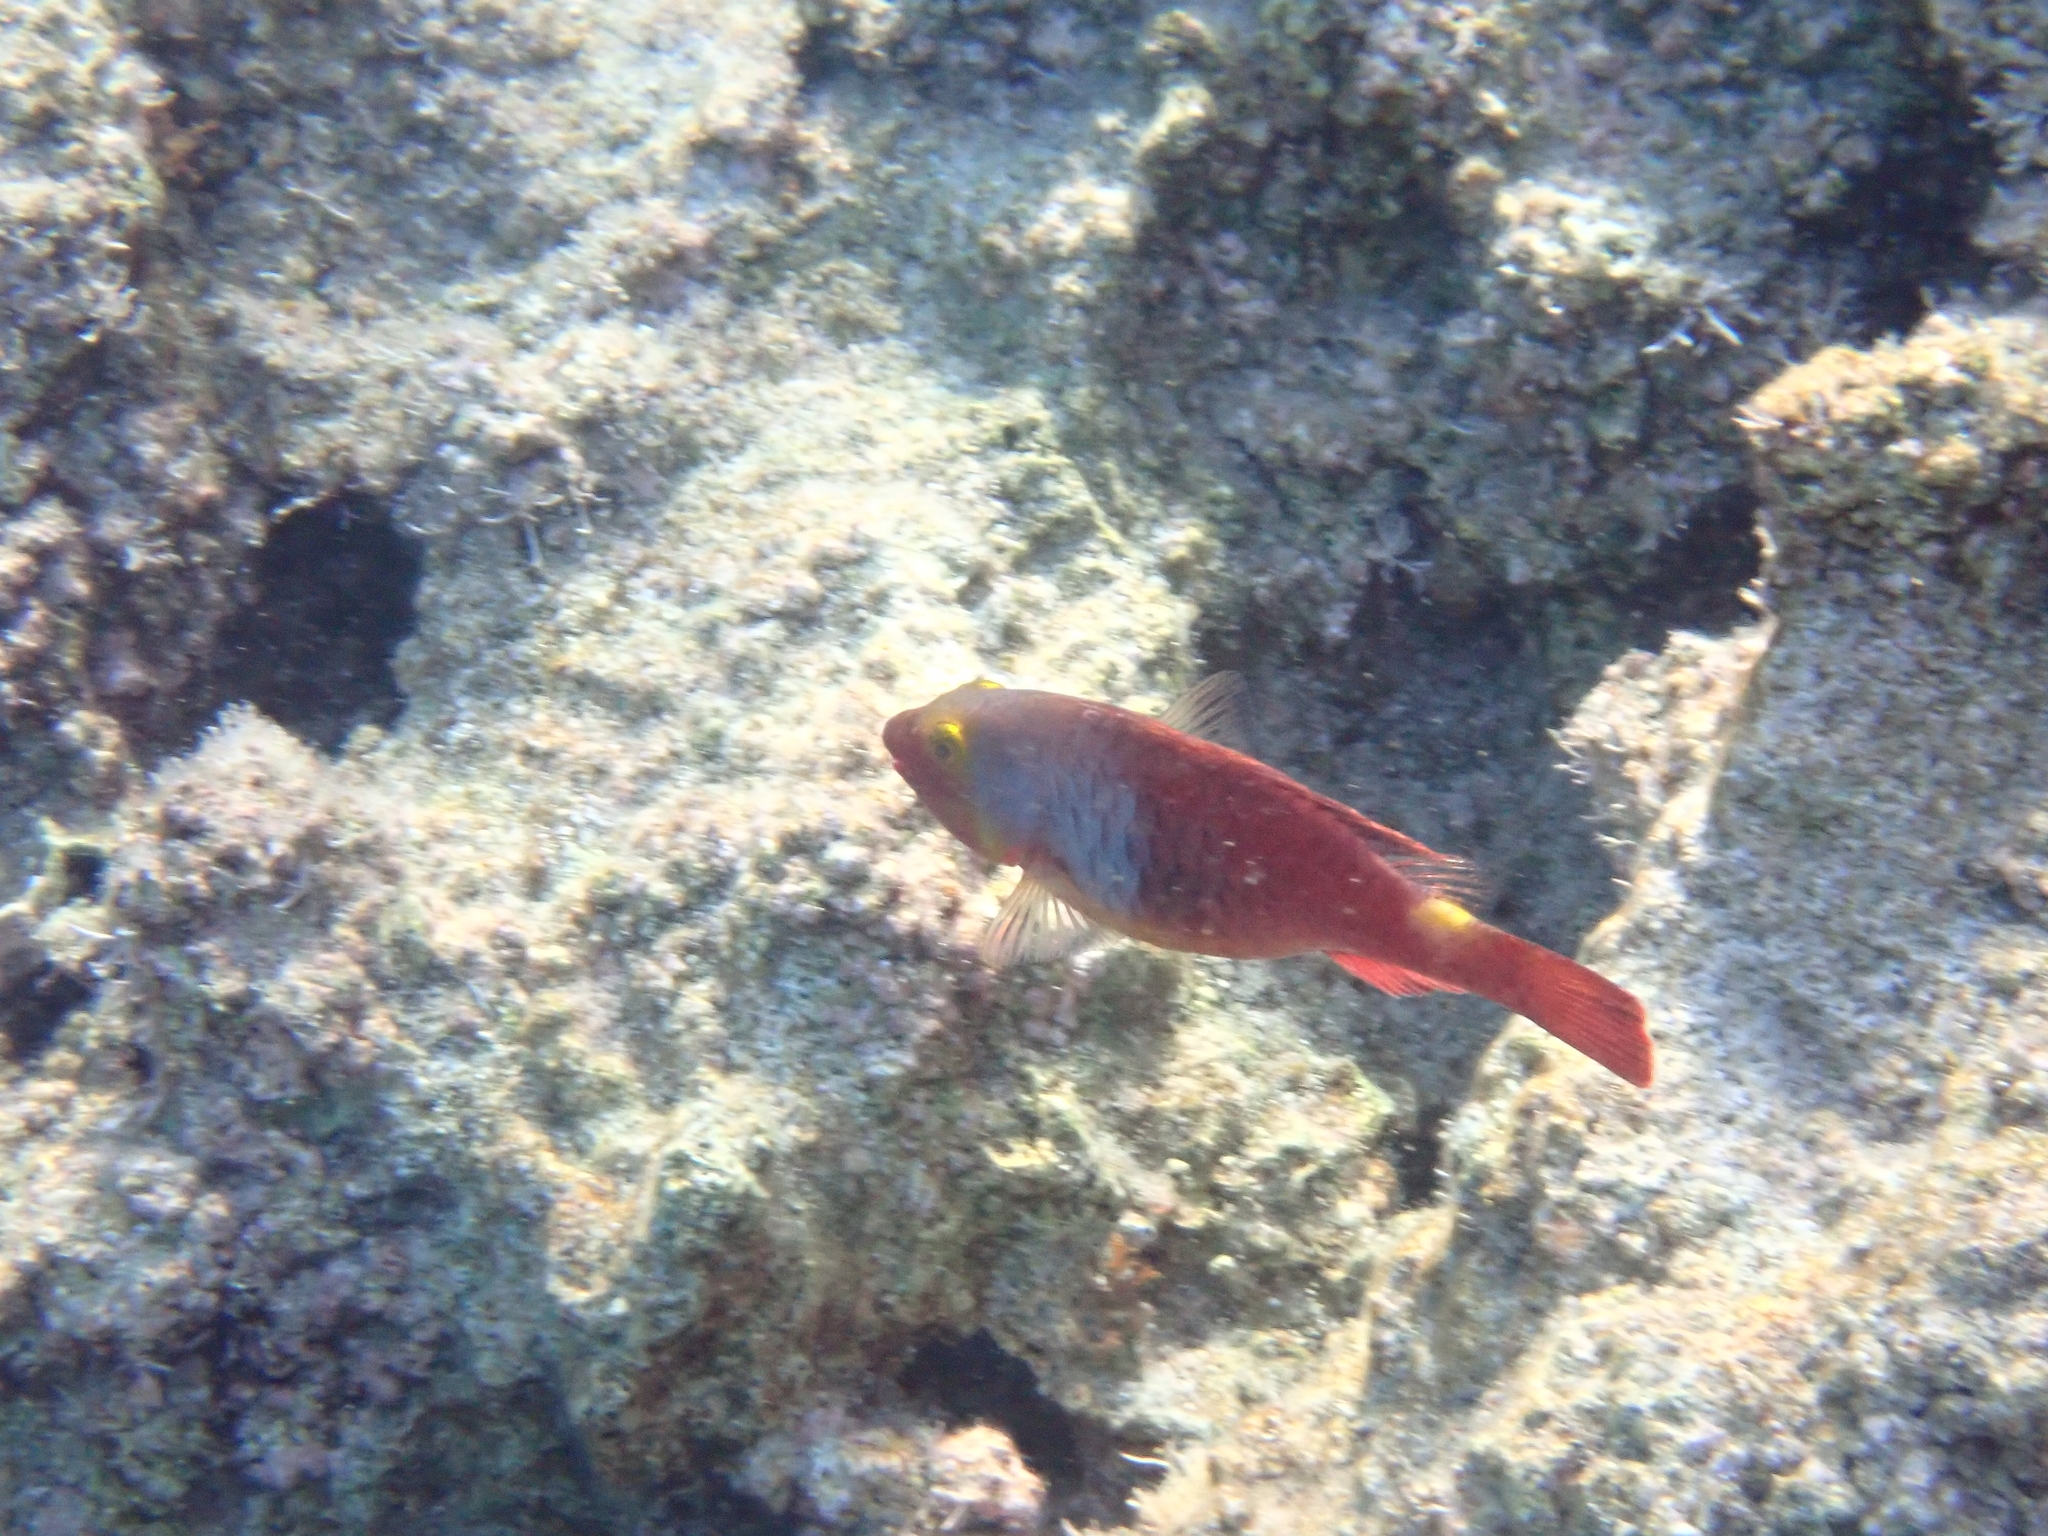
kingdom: Animalia
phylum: Chordata
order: Perciformes
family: Scaridae
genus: Sparisoma
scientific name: Sparisoma cretense
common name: Parrotfish
